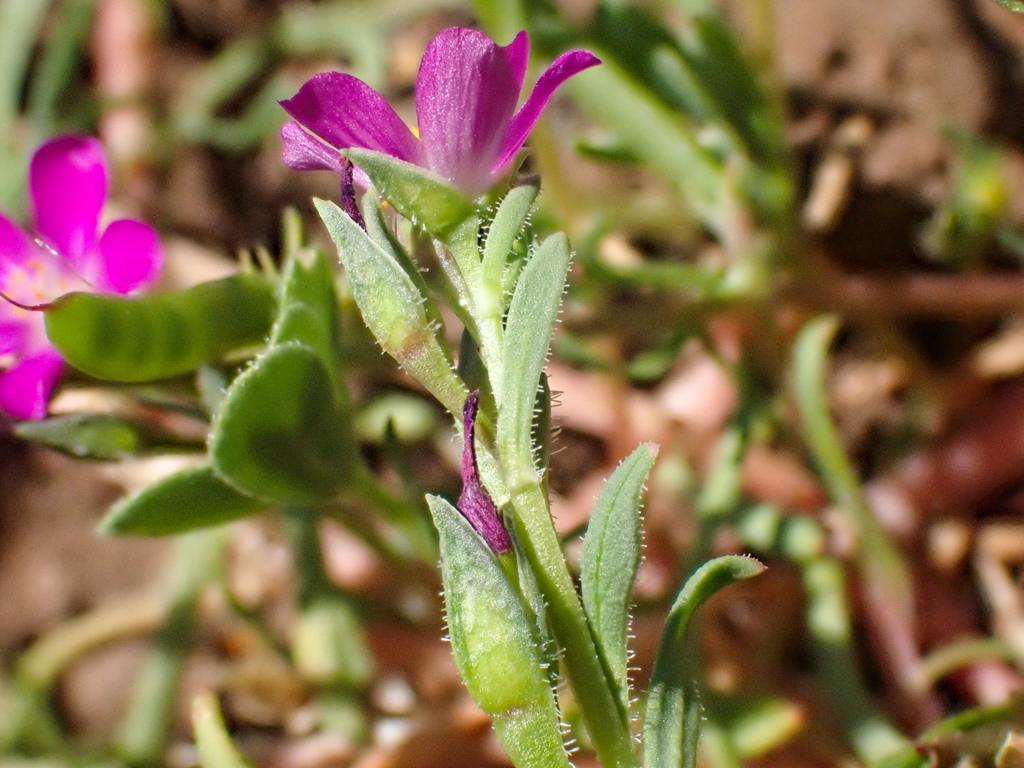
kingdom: Plantae
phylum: Tracheophyta
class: Magnoliopsida
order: Caryophyllales
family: Montiaceae
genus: Calandrinia
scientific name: Calandrinia breweri
